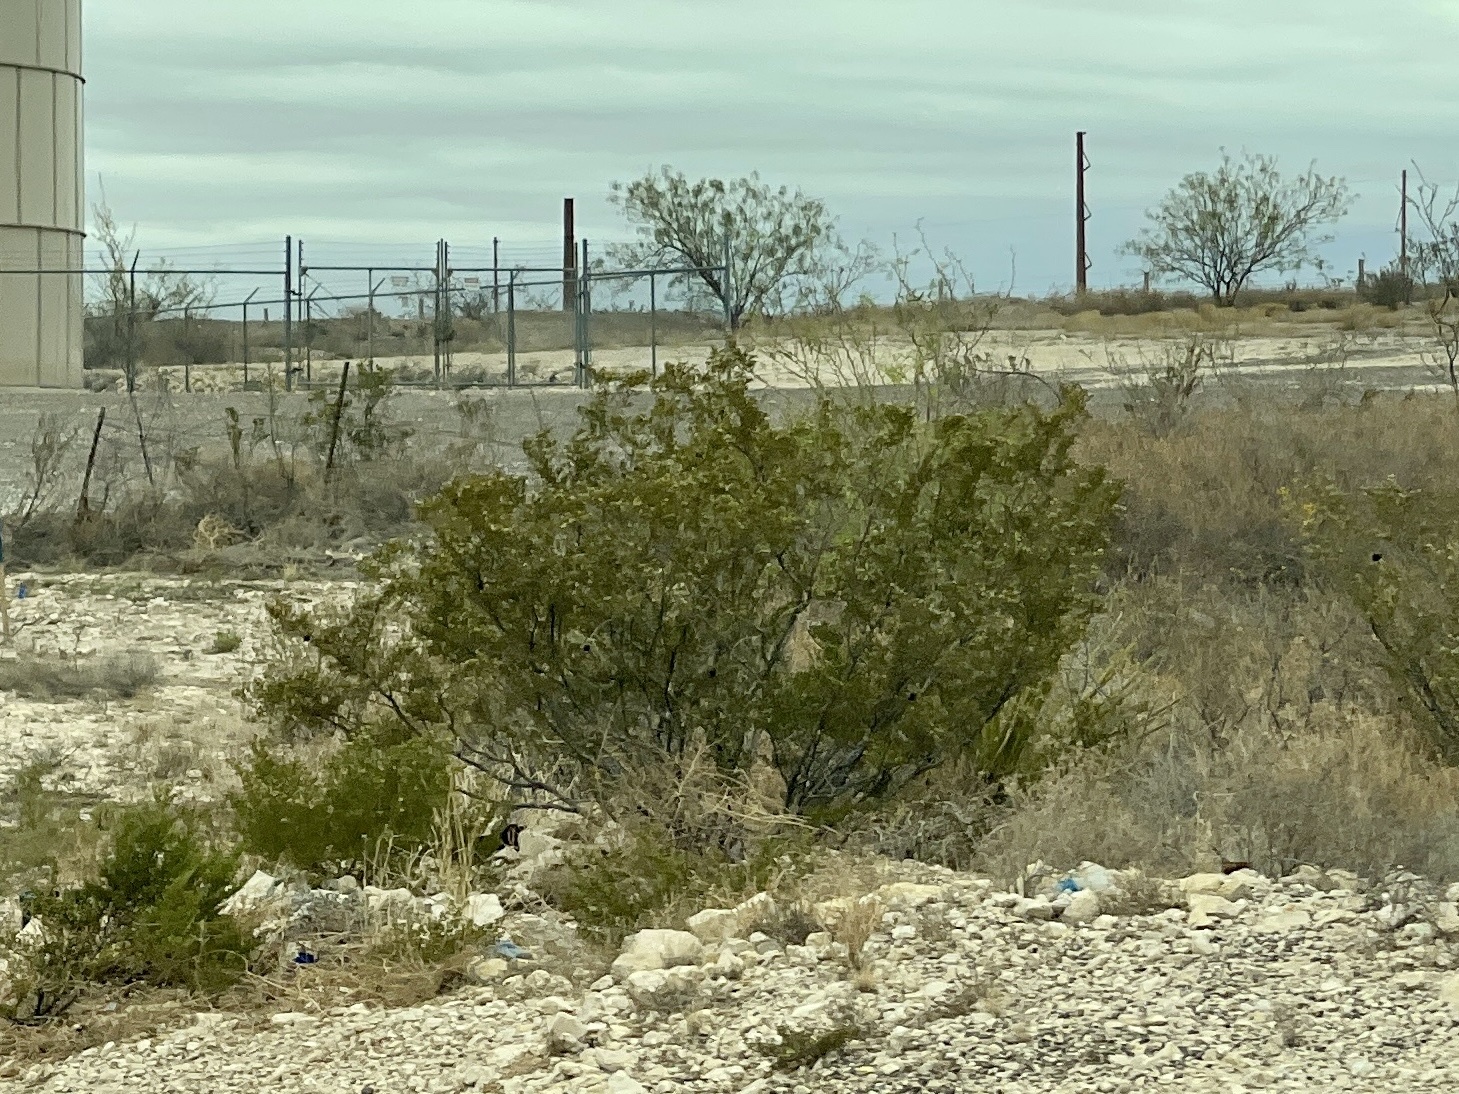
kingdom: Plantae
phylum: Tracheophyta
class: Magnoliopsida
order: Zygophyllales
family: Zygophyllaceae
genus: Larrea
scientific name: Larrea tridentata
